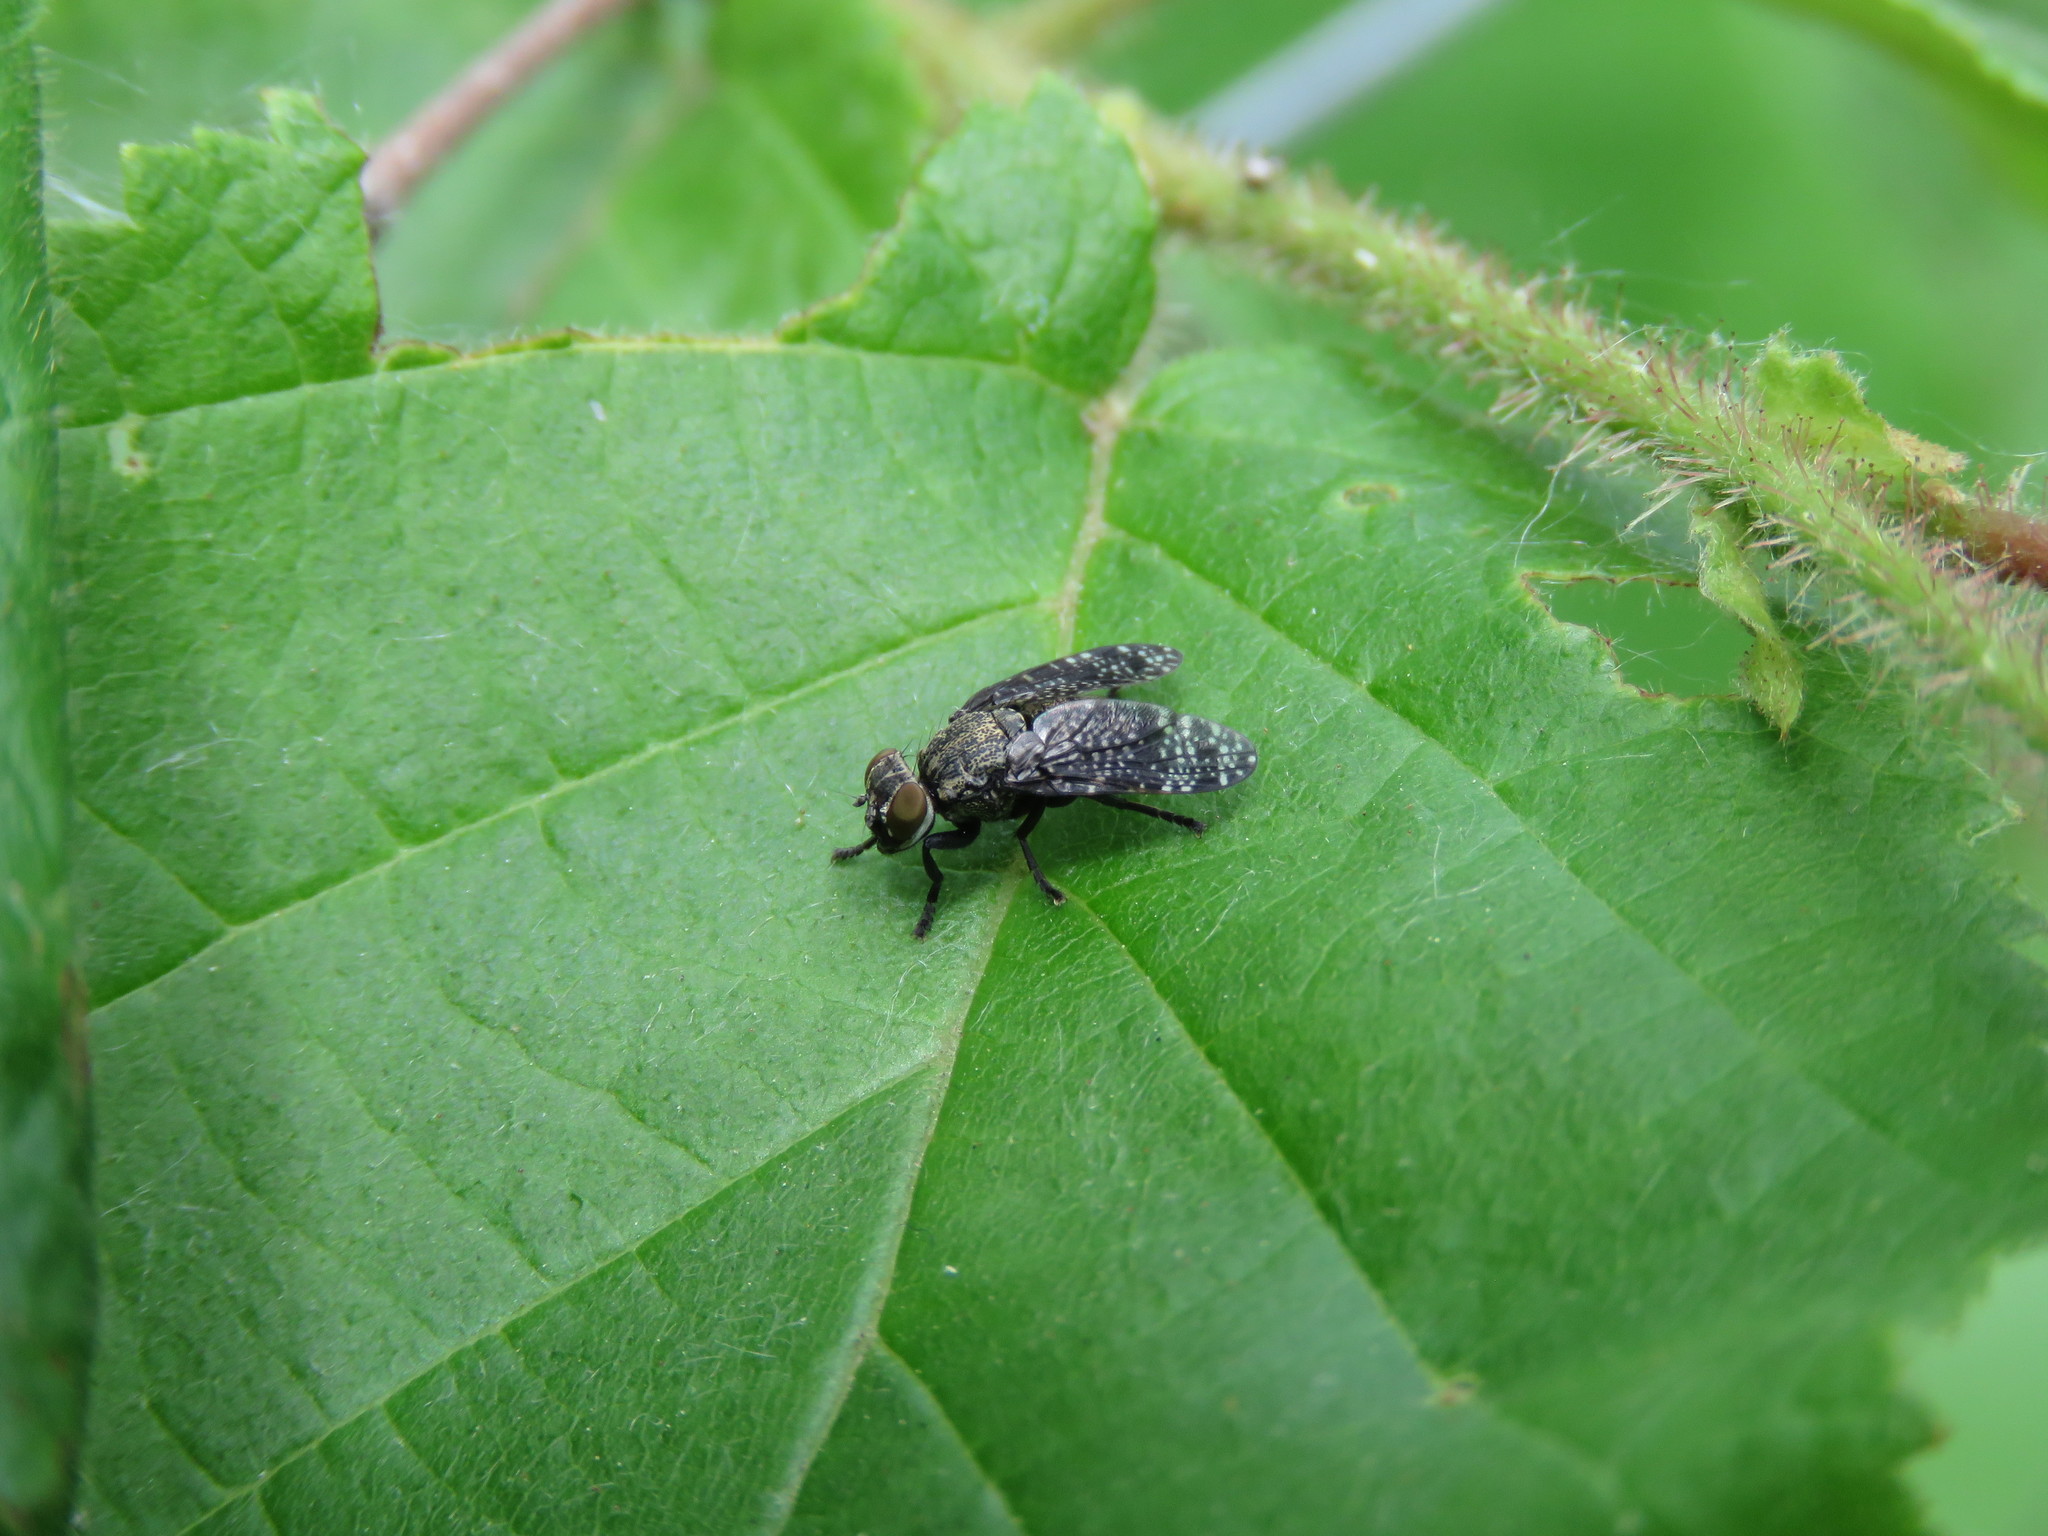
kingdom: Animalia
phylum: Arthropoda
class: Insecta
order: Diptera
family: Platystomatidae
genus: Platystoma
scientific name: Platystoma seminationis
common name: Fly
